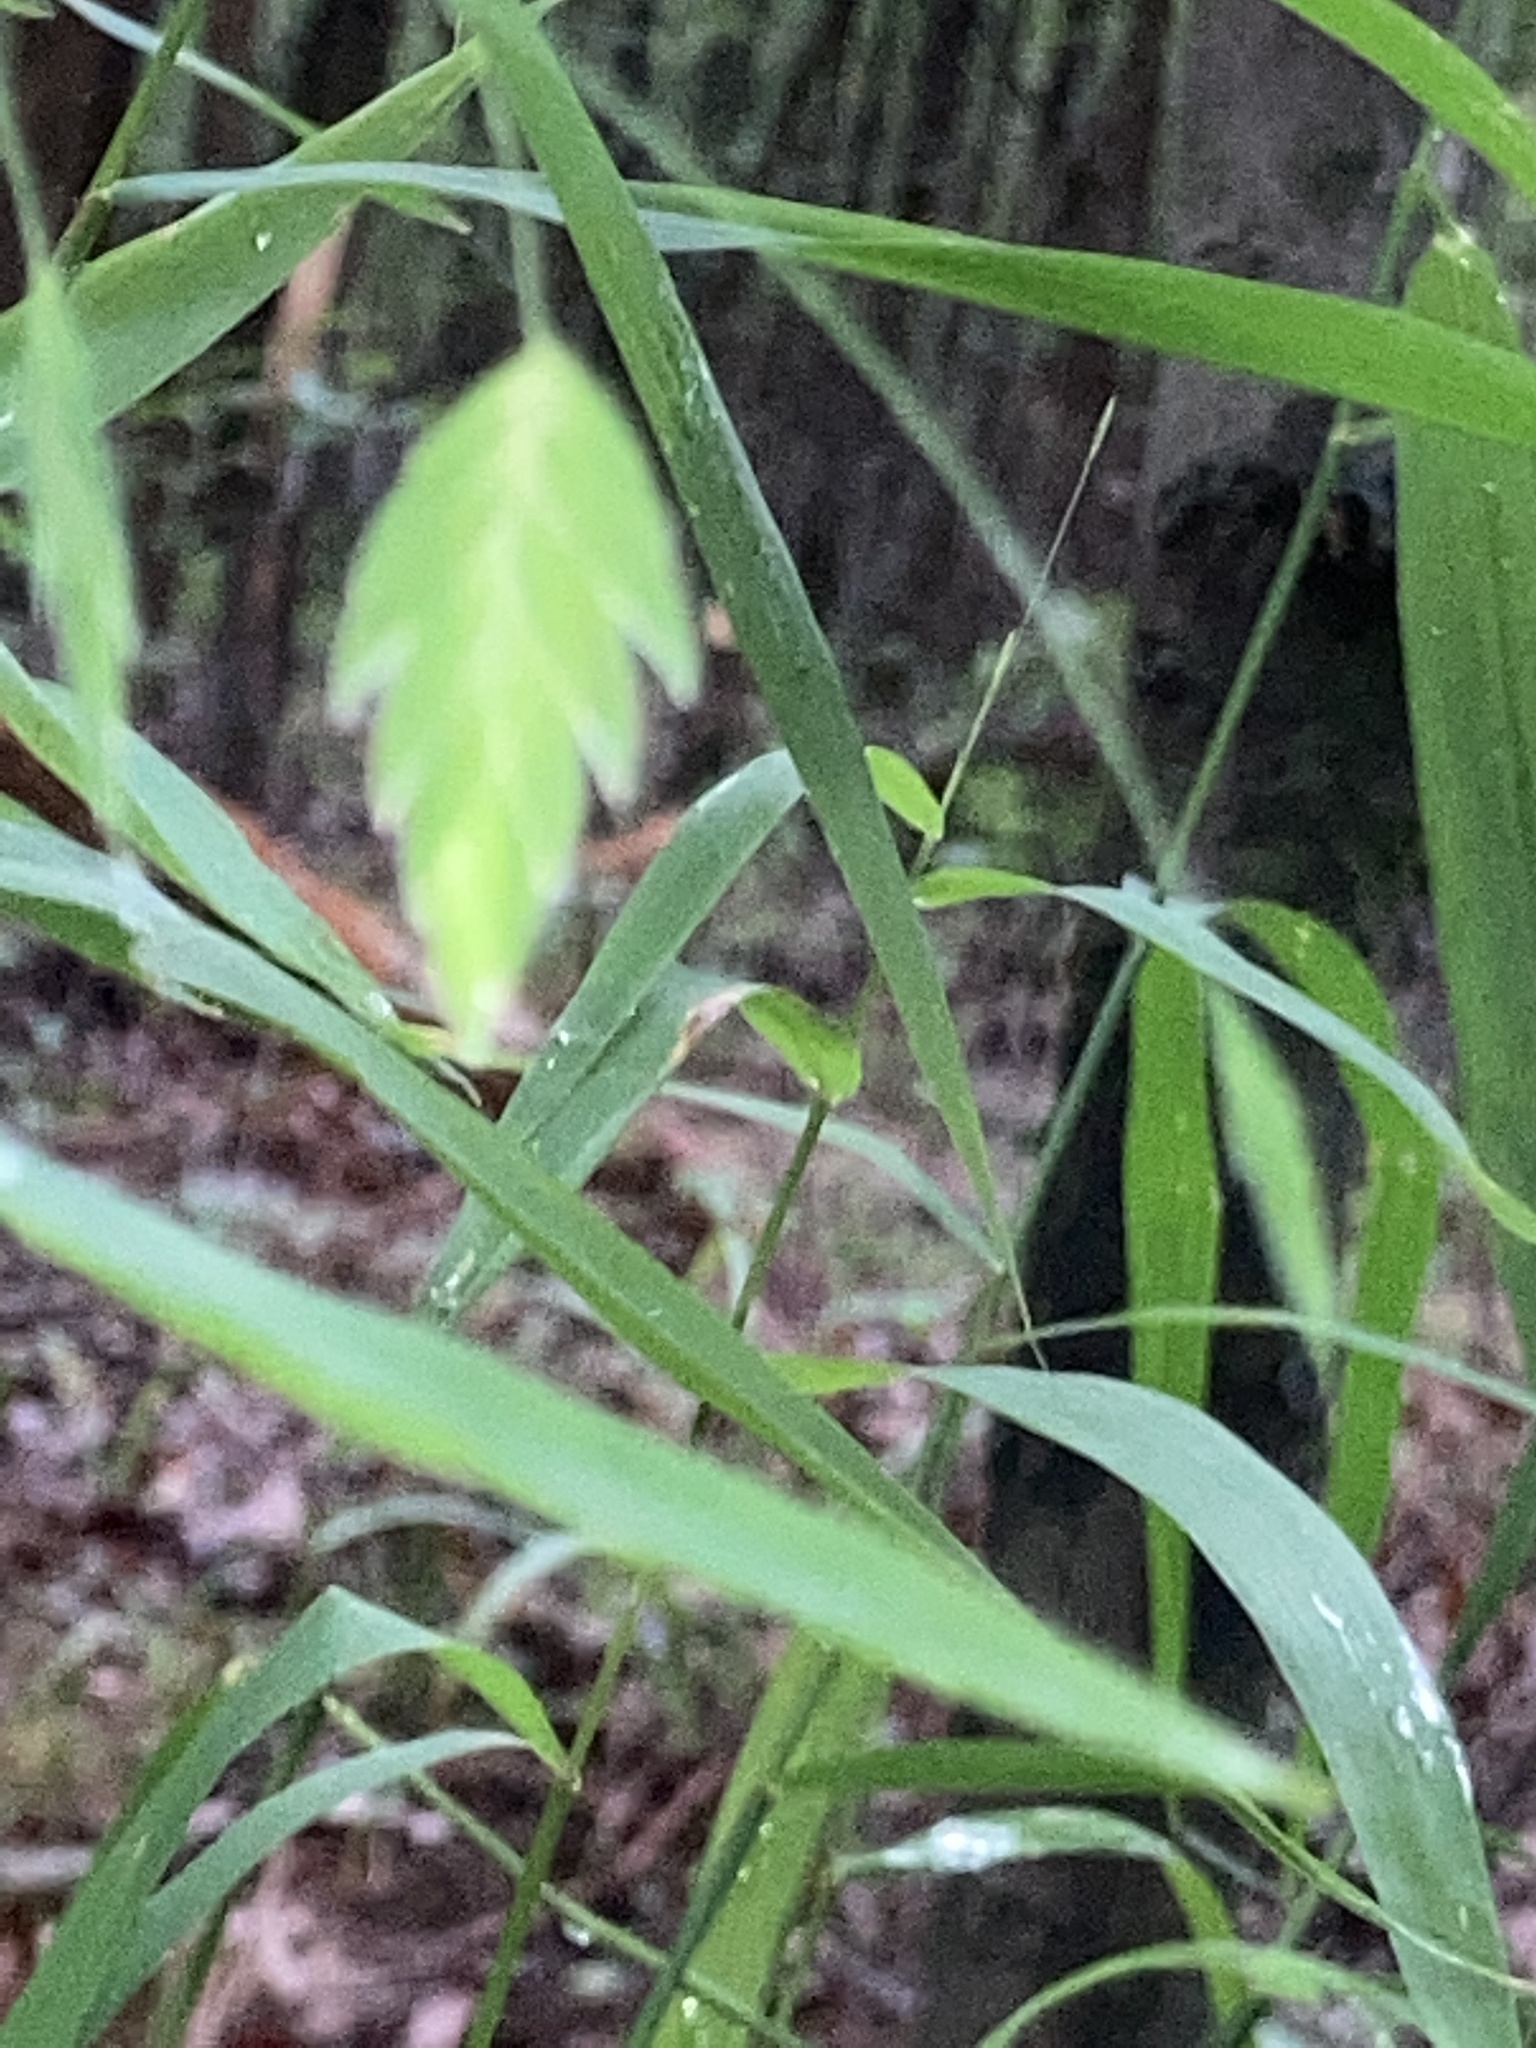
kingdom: Plantae
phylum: Tracheophyta
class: Liliopsida
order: Poales
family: Poaceae
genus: Chasmanthium
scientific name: Chasmanthium latifolium
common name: Broad-leaved chasmanthium
